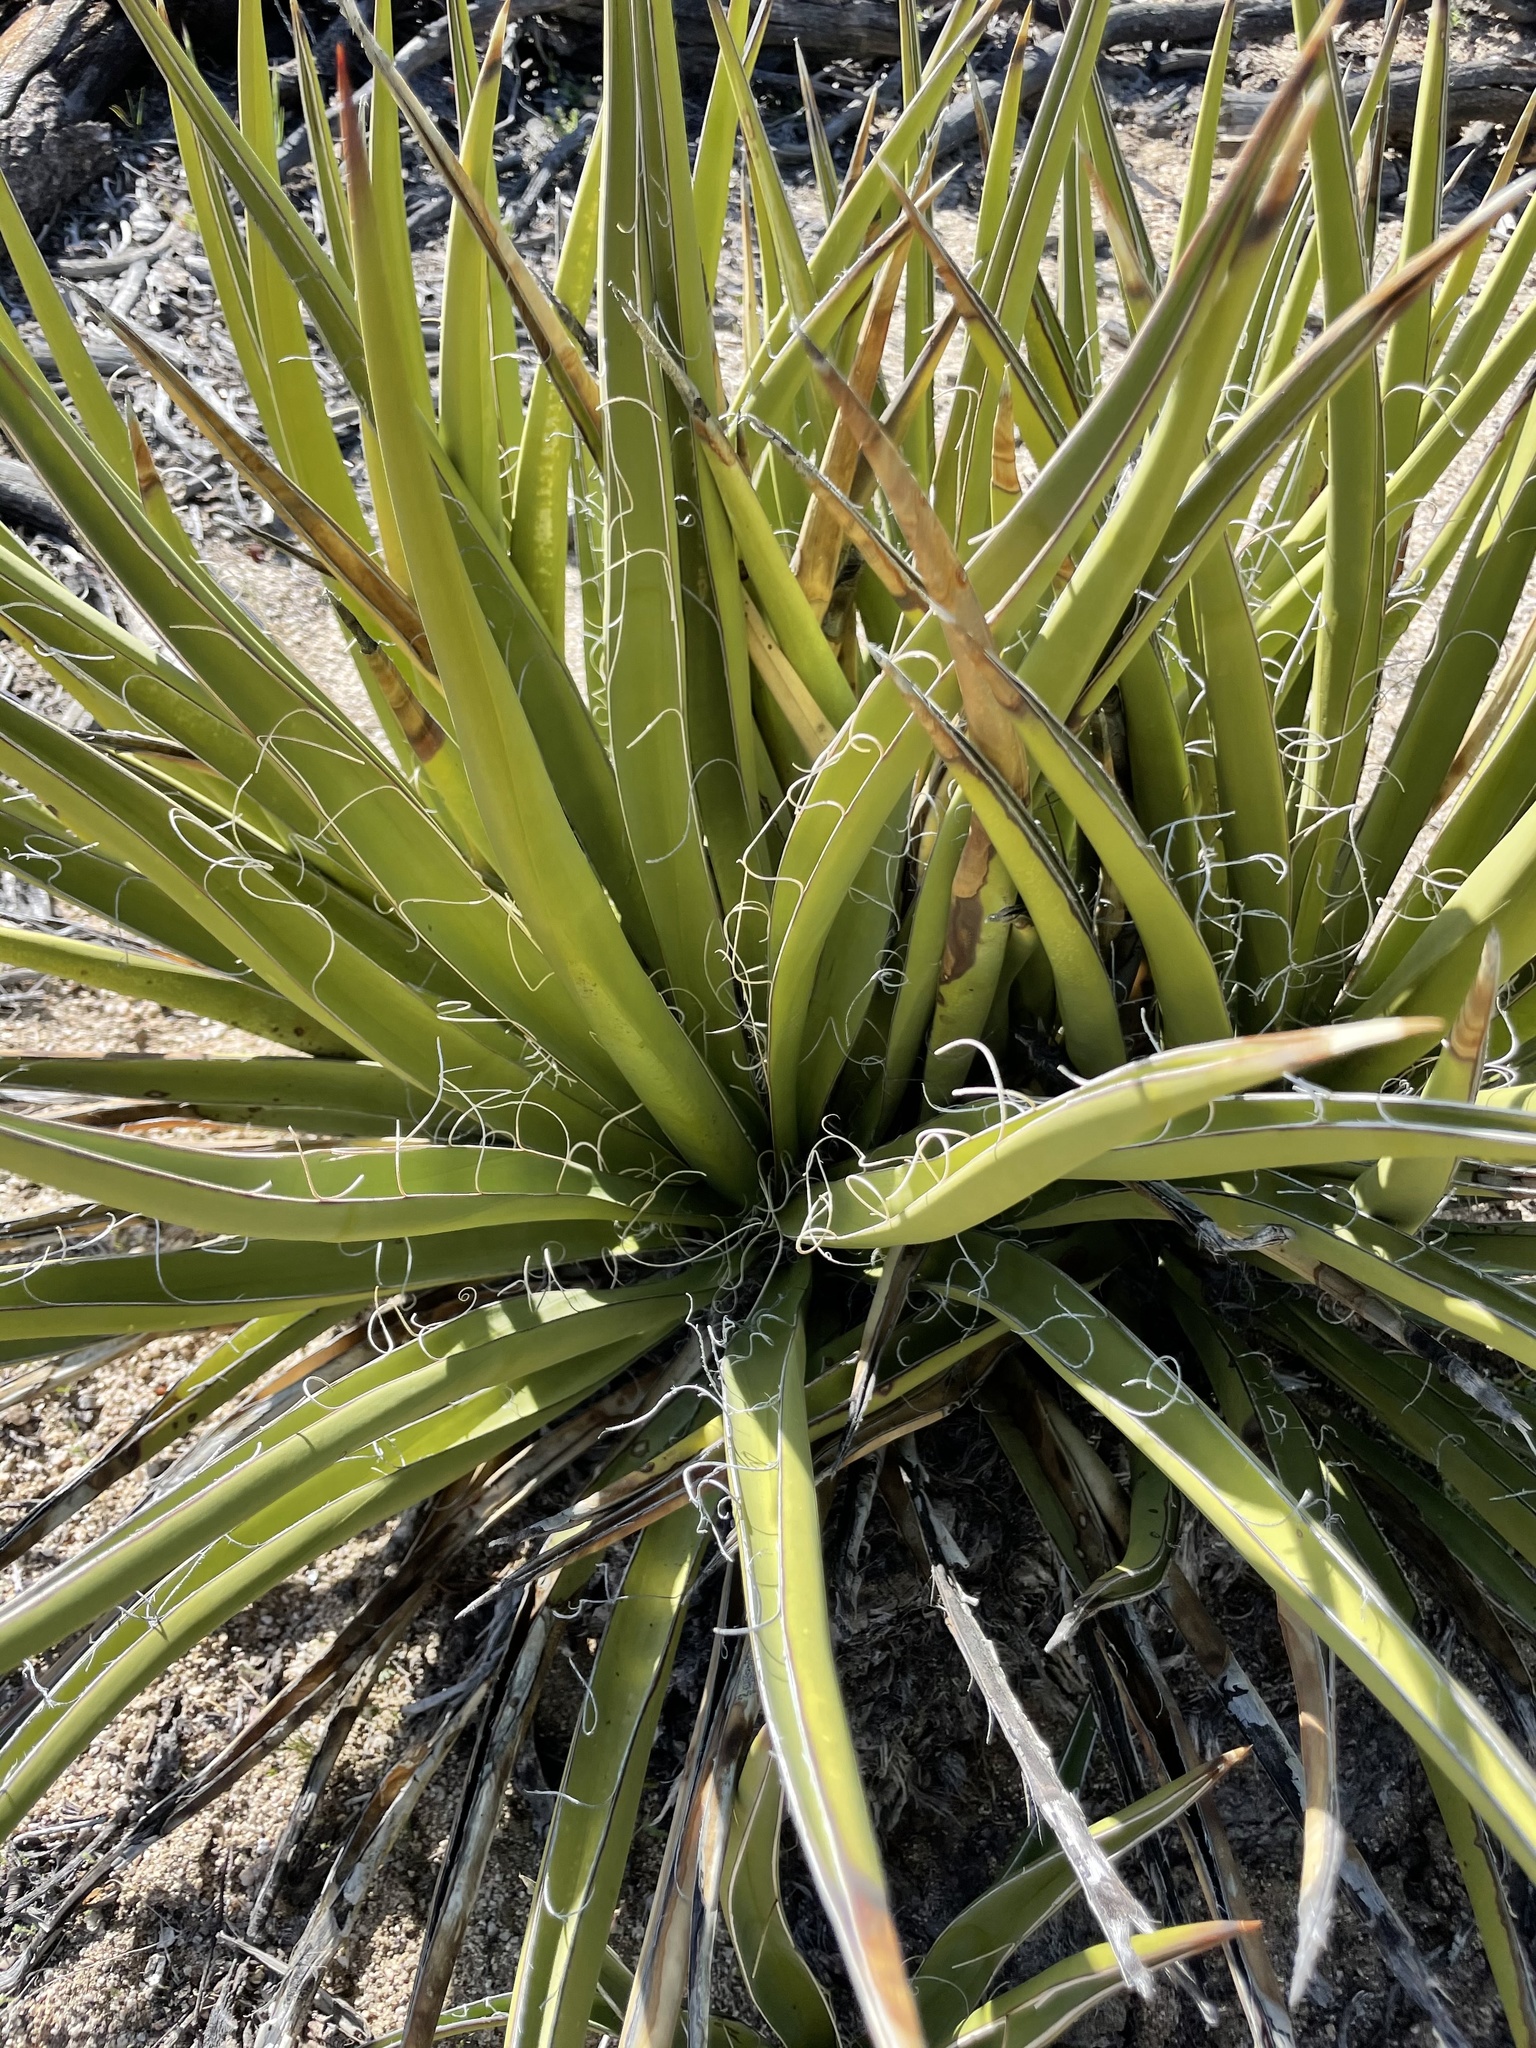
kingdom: Plantae
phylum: Tracheophyta
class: Liliopsida
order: Asparagales
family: Asparagaceae
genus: Yucca
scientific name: Yucca schidigera
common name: Mojave yucca
